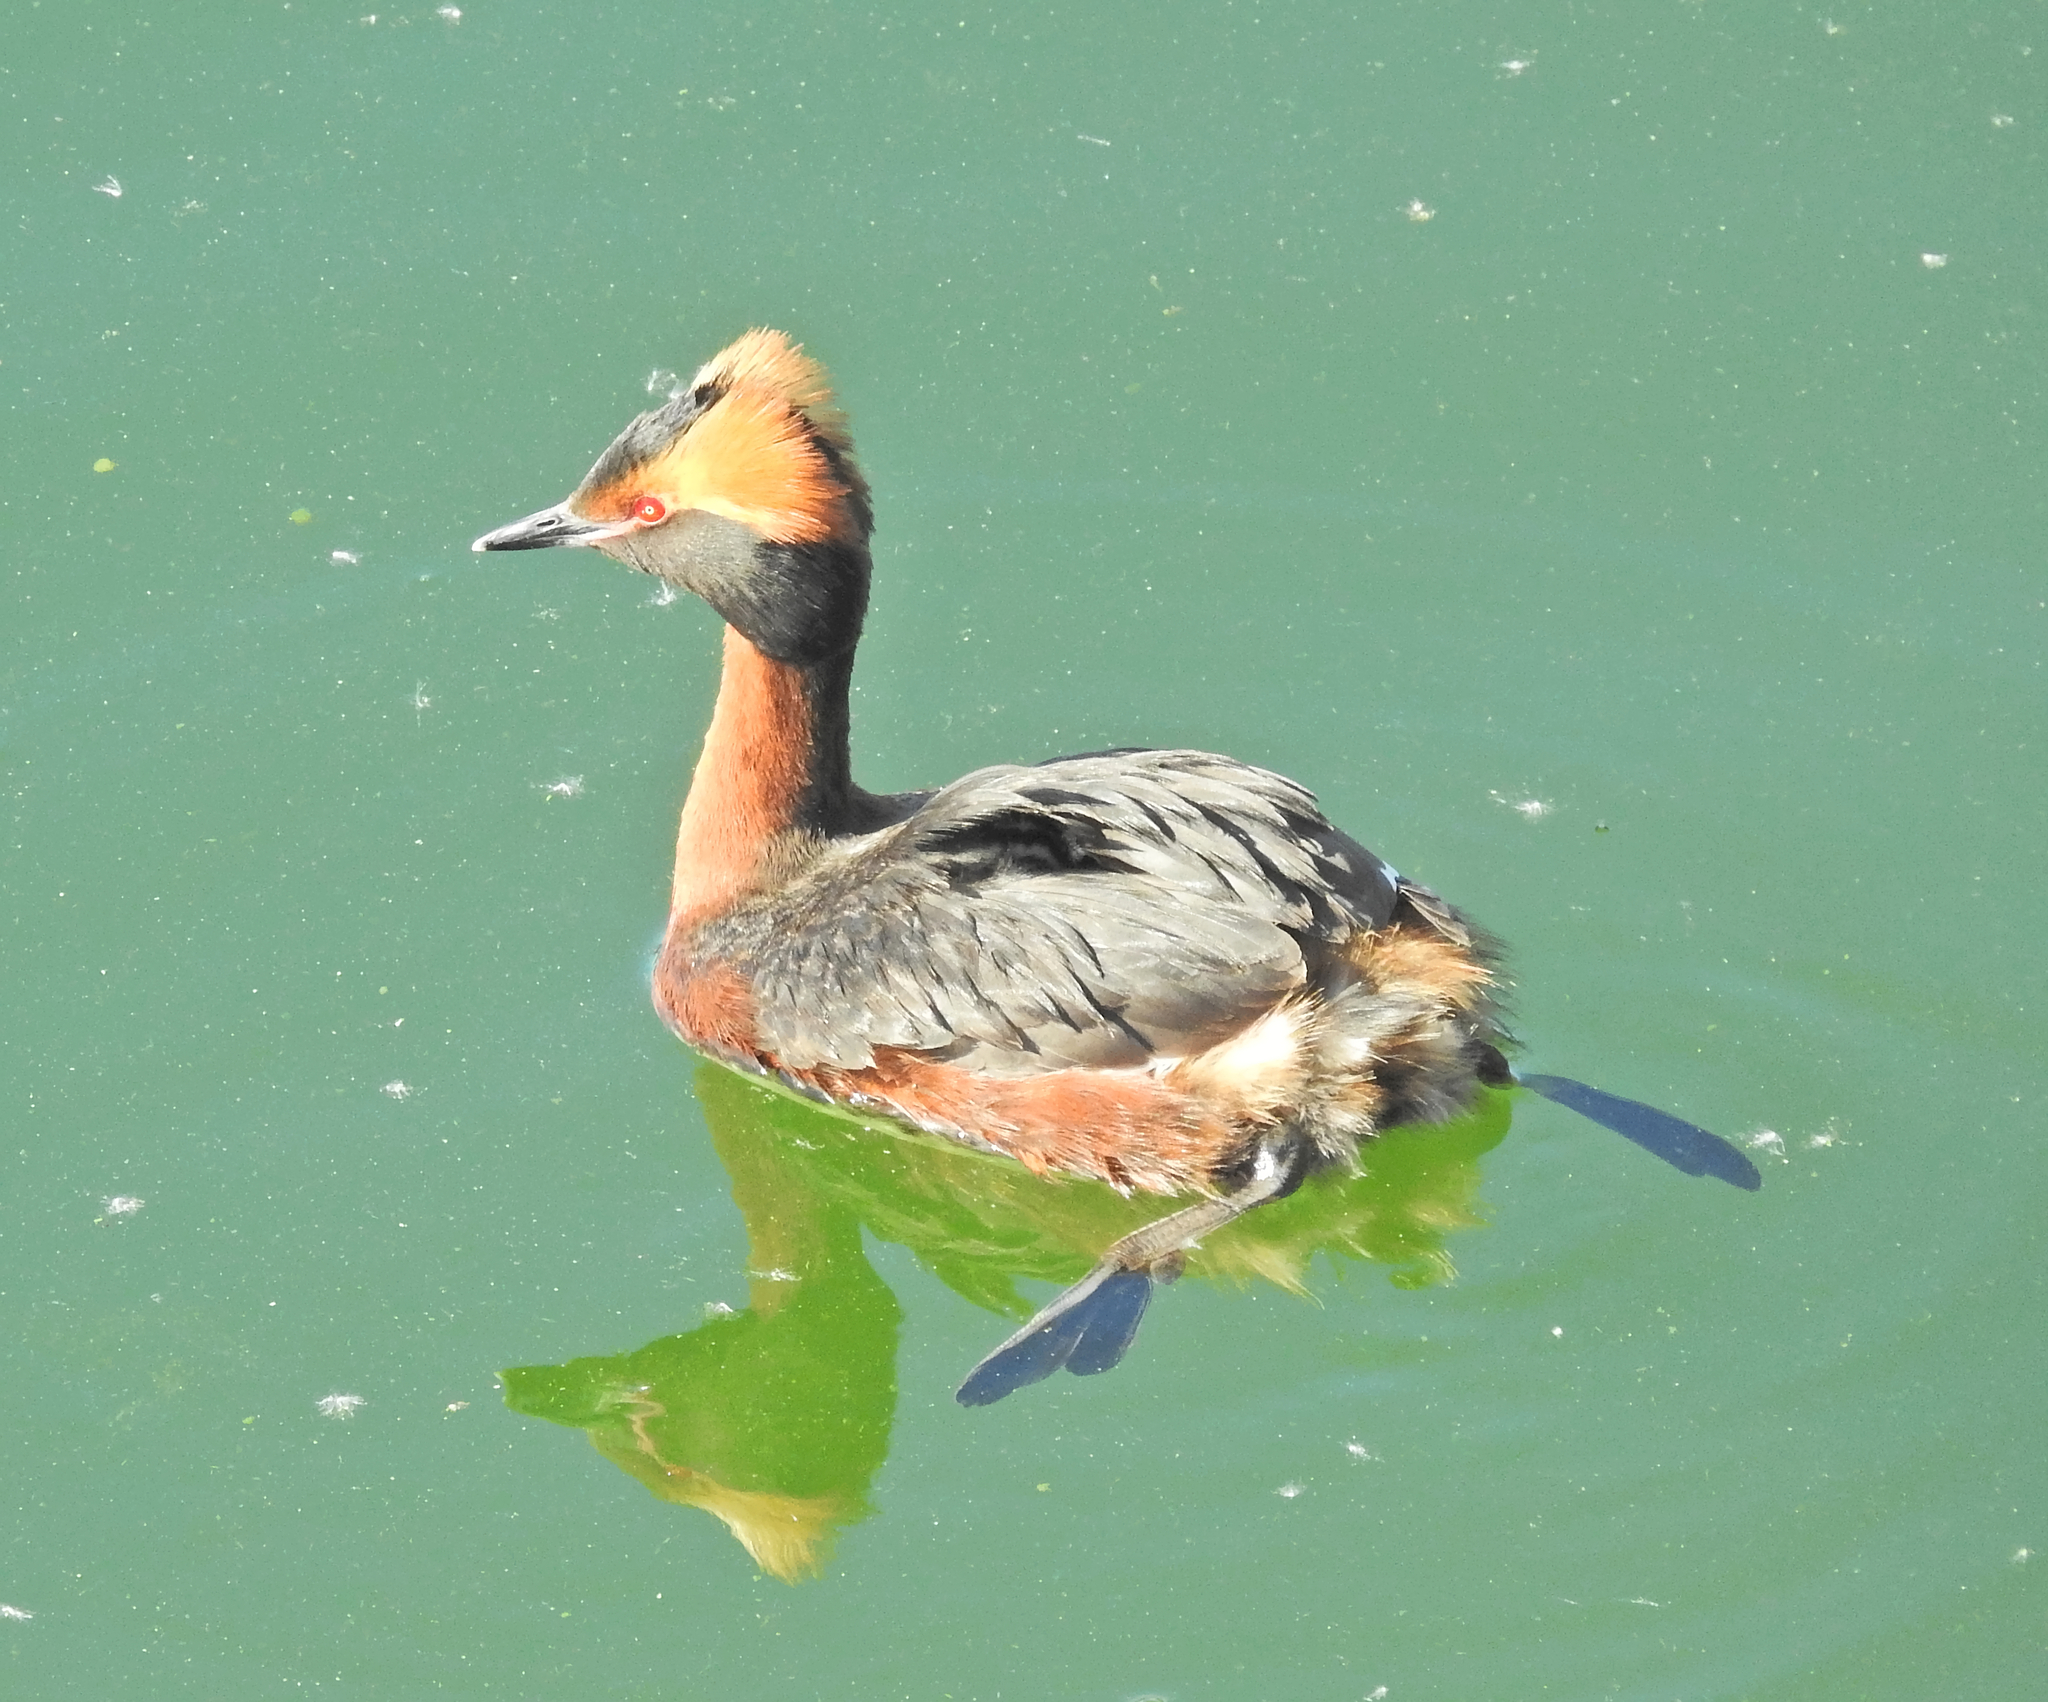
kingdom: Animalia
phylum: Chordata
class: Aves
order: Podicipediformes
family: Podicipedidae
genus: Podiceps
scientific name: Podiceps auritus
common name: Horned grebe
